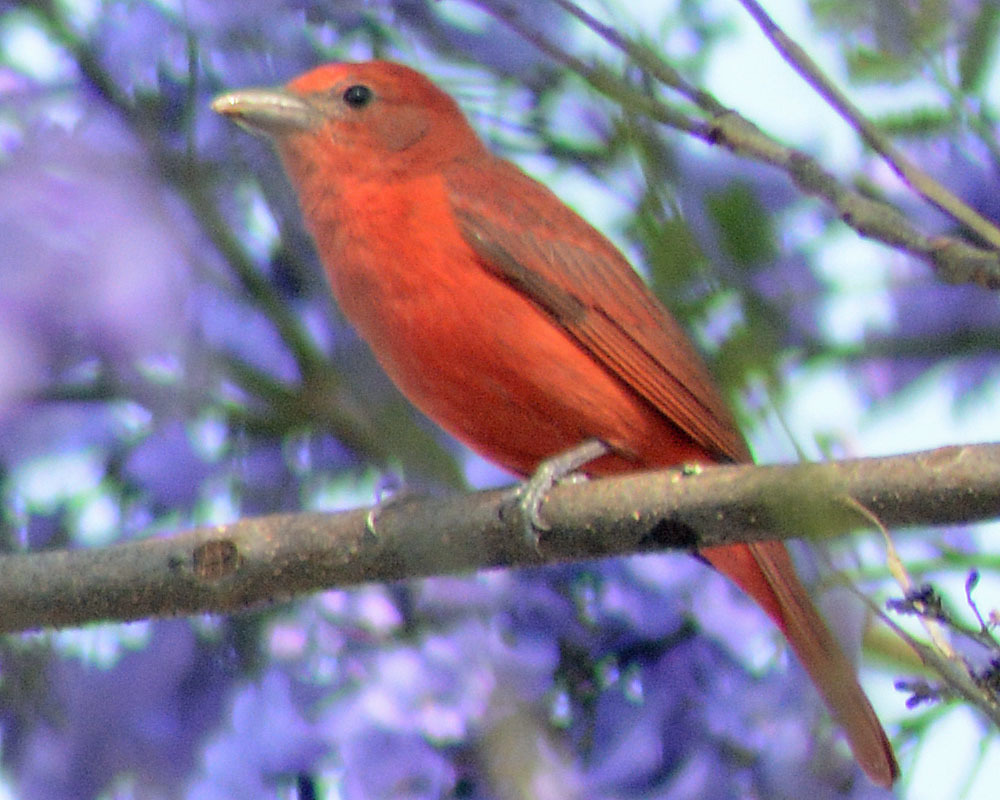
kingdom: Animalia
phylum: Chordata
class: Aves
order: Passeriformes
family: Cardinalidae
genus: Piranga
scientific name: Piranga flava
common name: Red tanager
